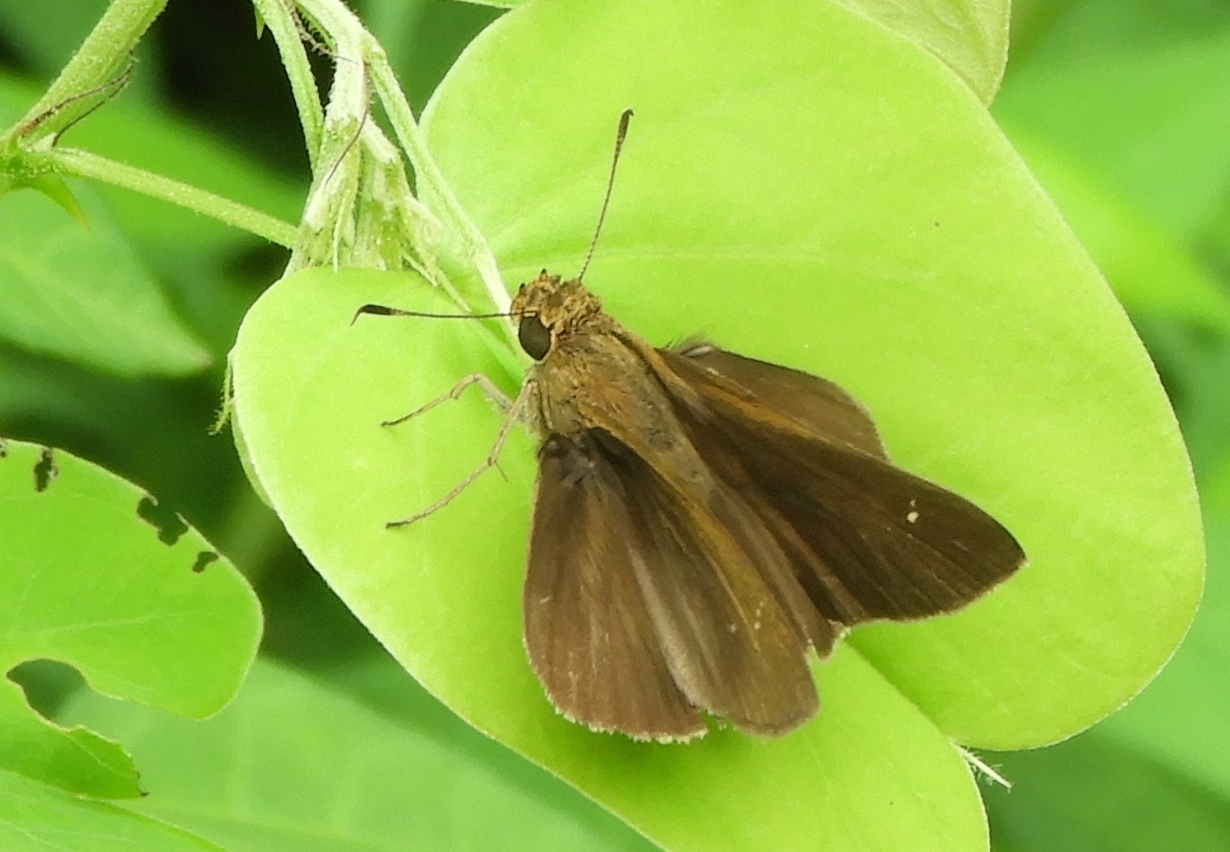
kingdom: Animalia
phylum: Arthropoda
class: Insecta
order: Lepidoptera
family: Hesperiidae
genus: Lerema
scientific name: Lerema
